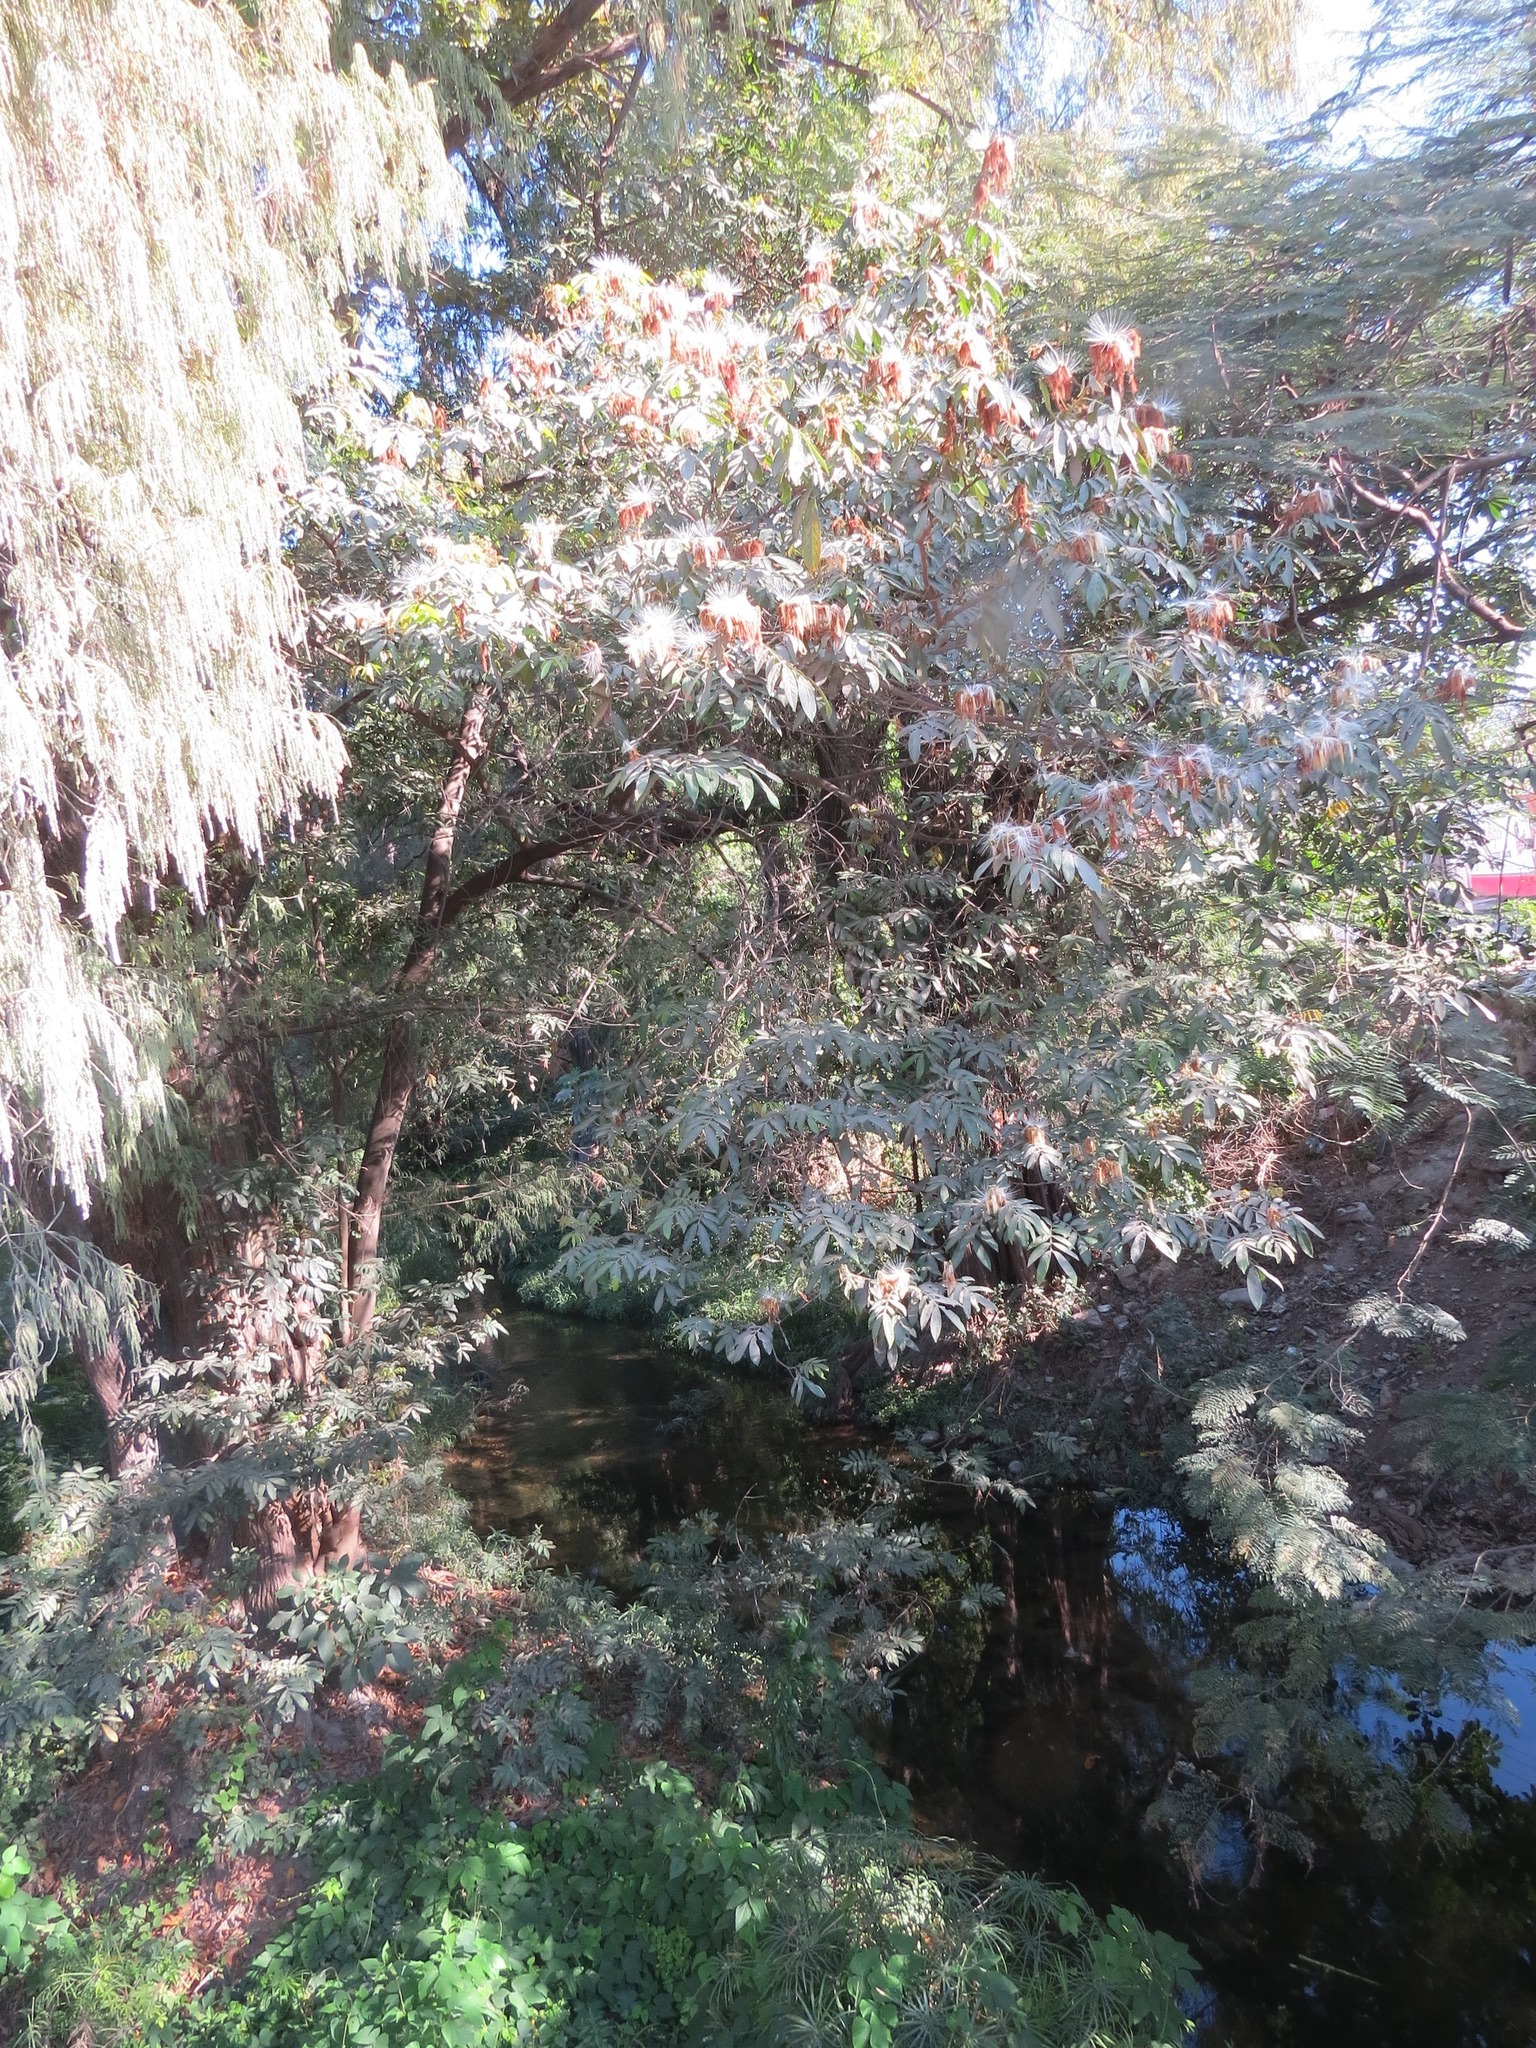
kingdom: Plantae
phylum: Tracheophyta
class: Magnoliopsida
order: Fabales
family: Fabaceae
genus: Inga
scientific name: Inga vera
